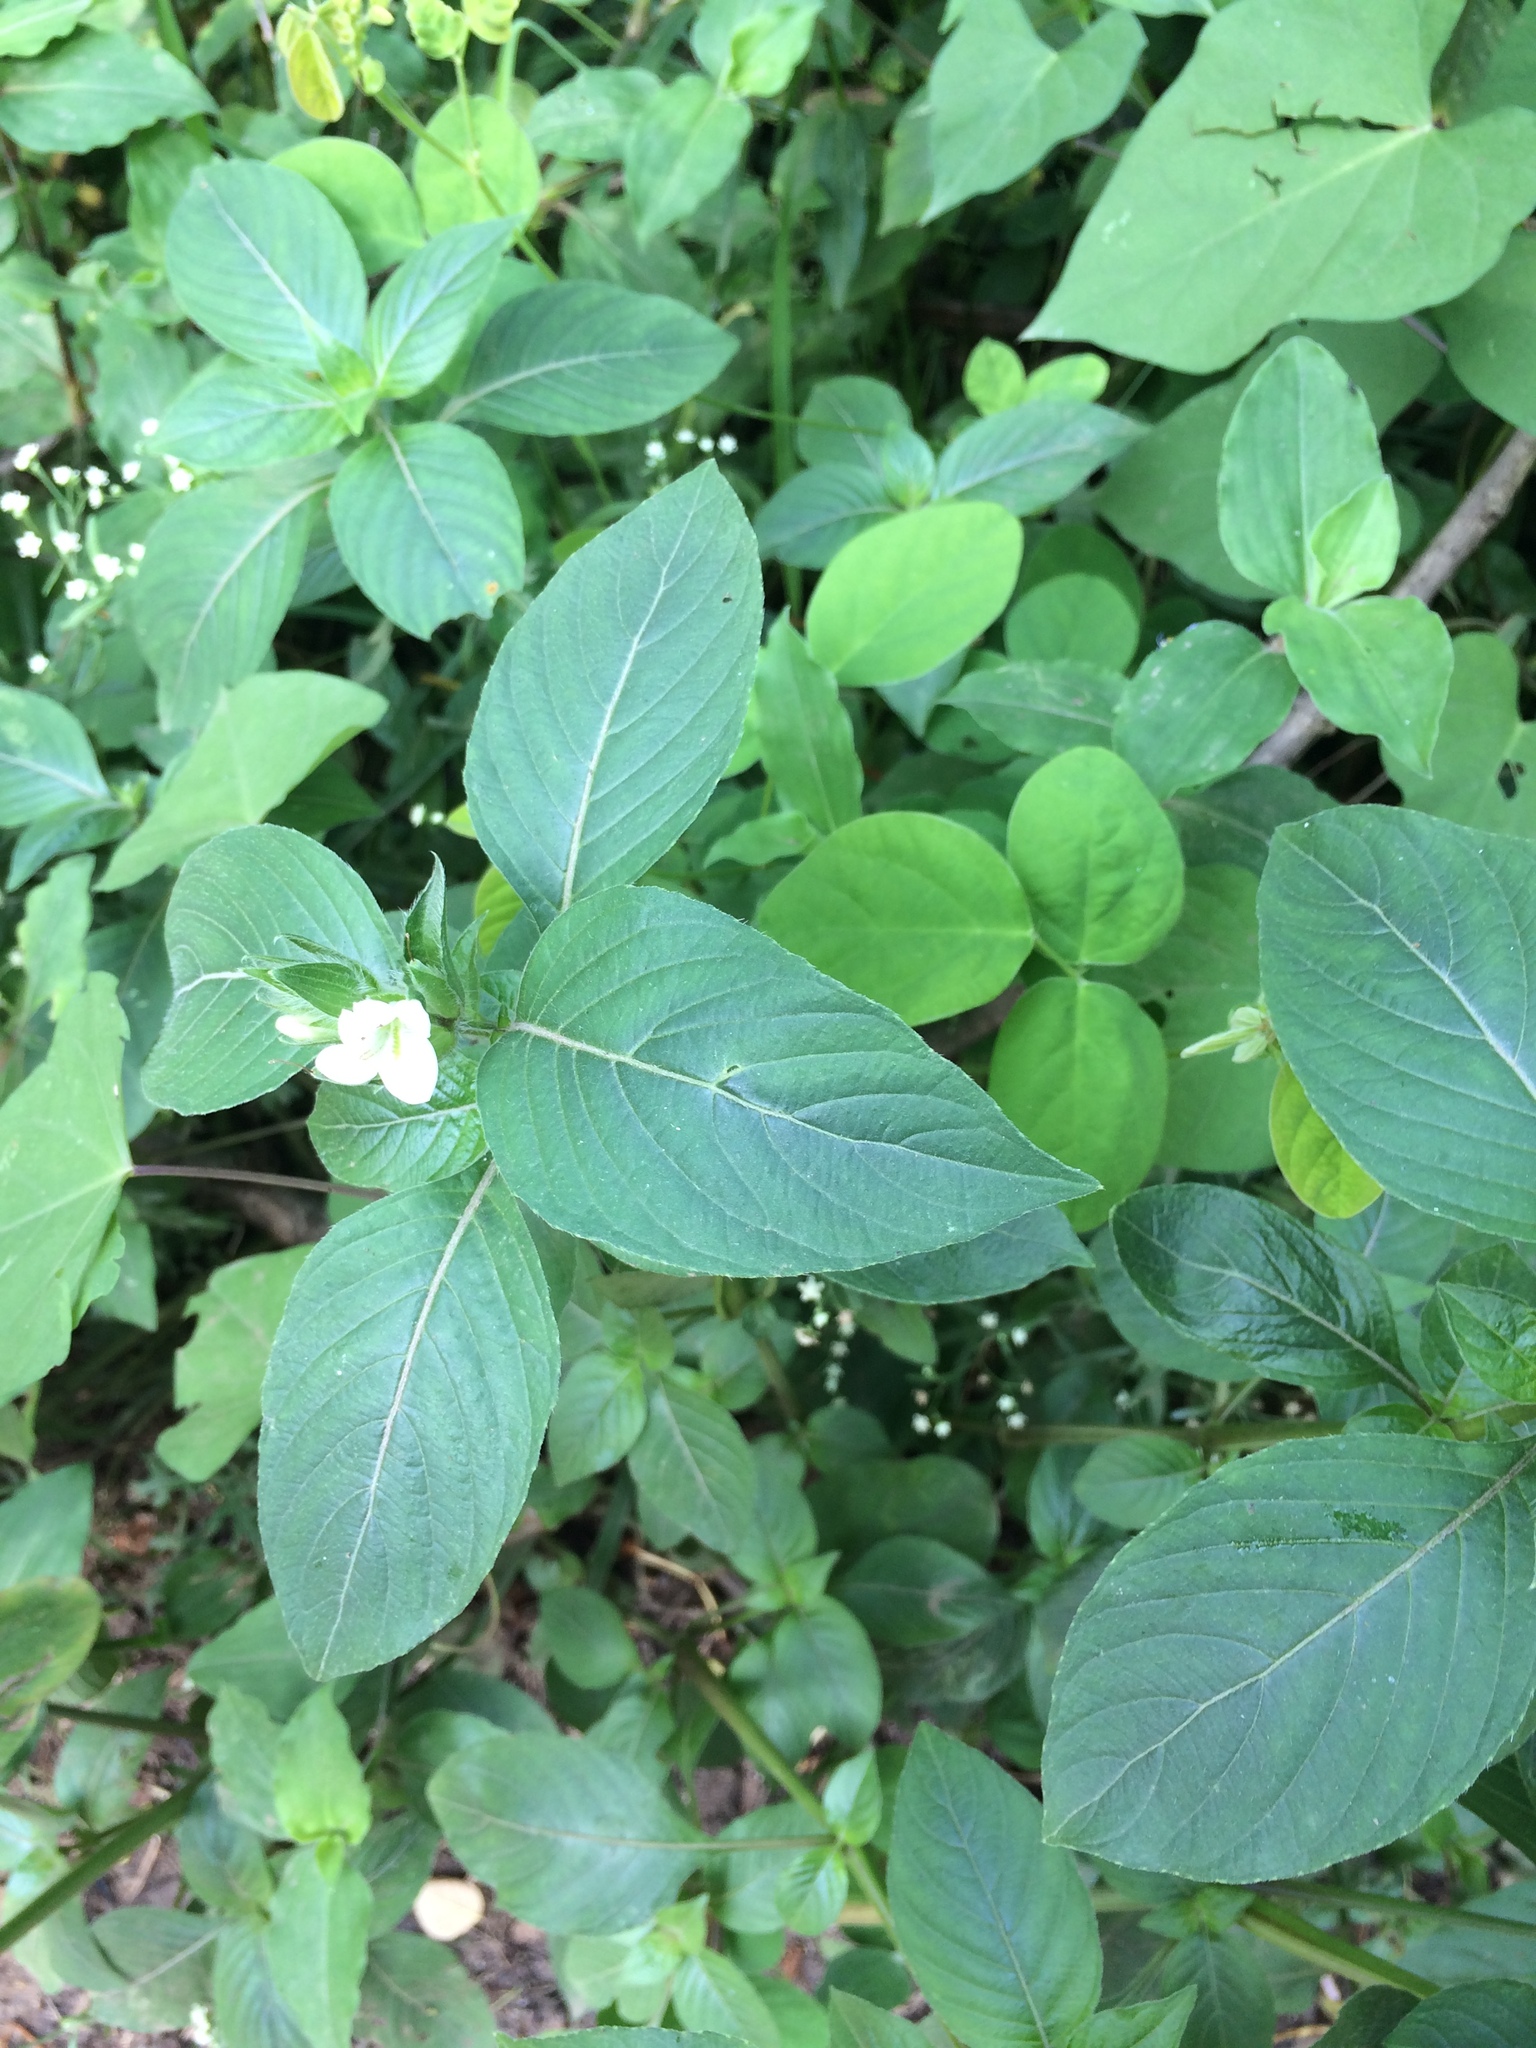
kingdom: Plantae
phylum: Tracheophyta
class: Magnoliopsida
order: Lamiales
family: Acanthaceae
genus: Asystasia
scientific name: Asystasia mysorensis
